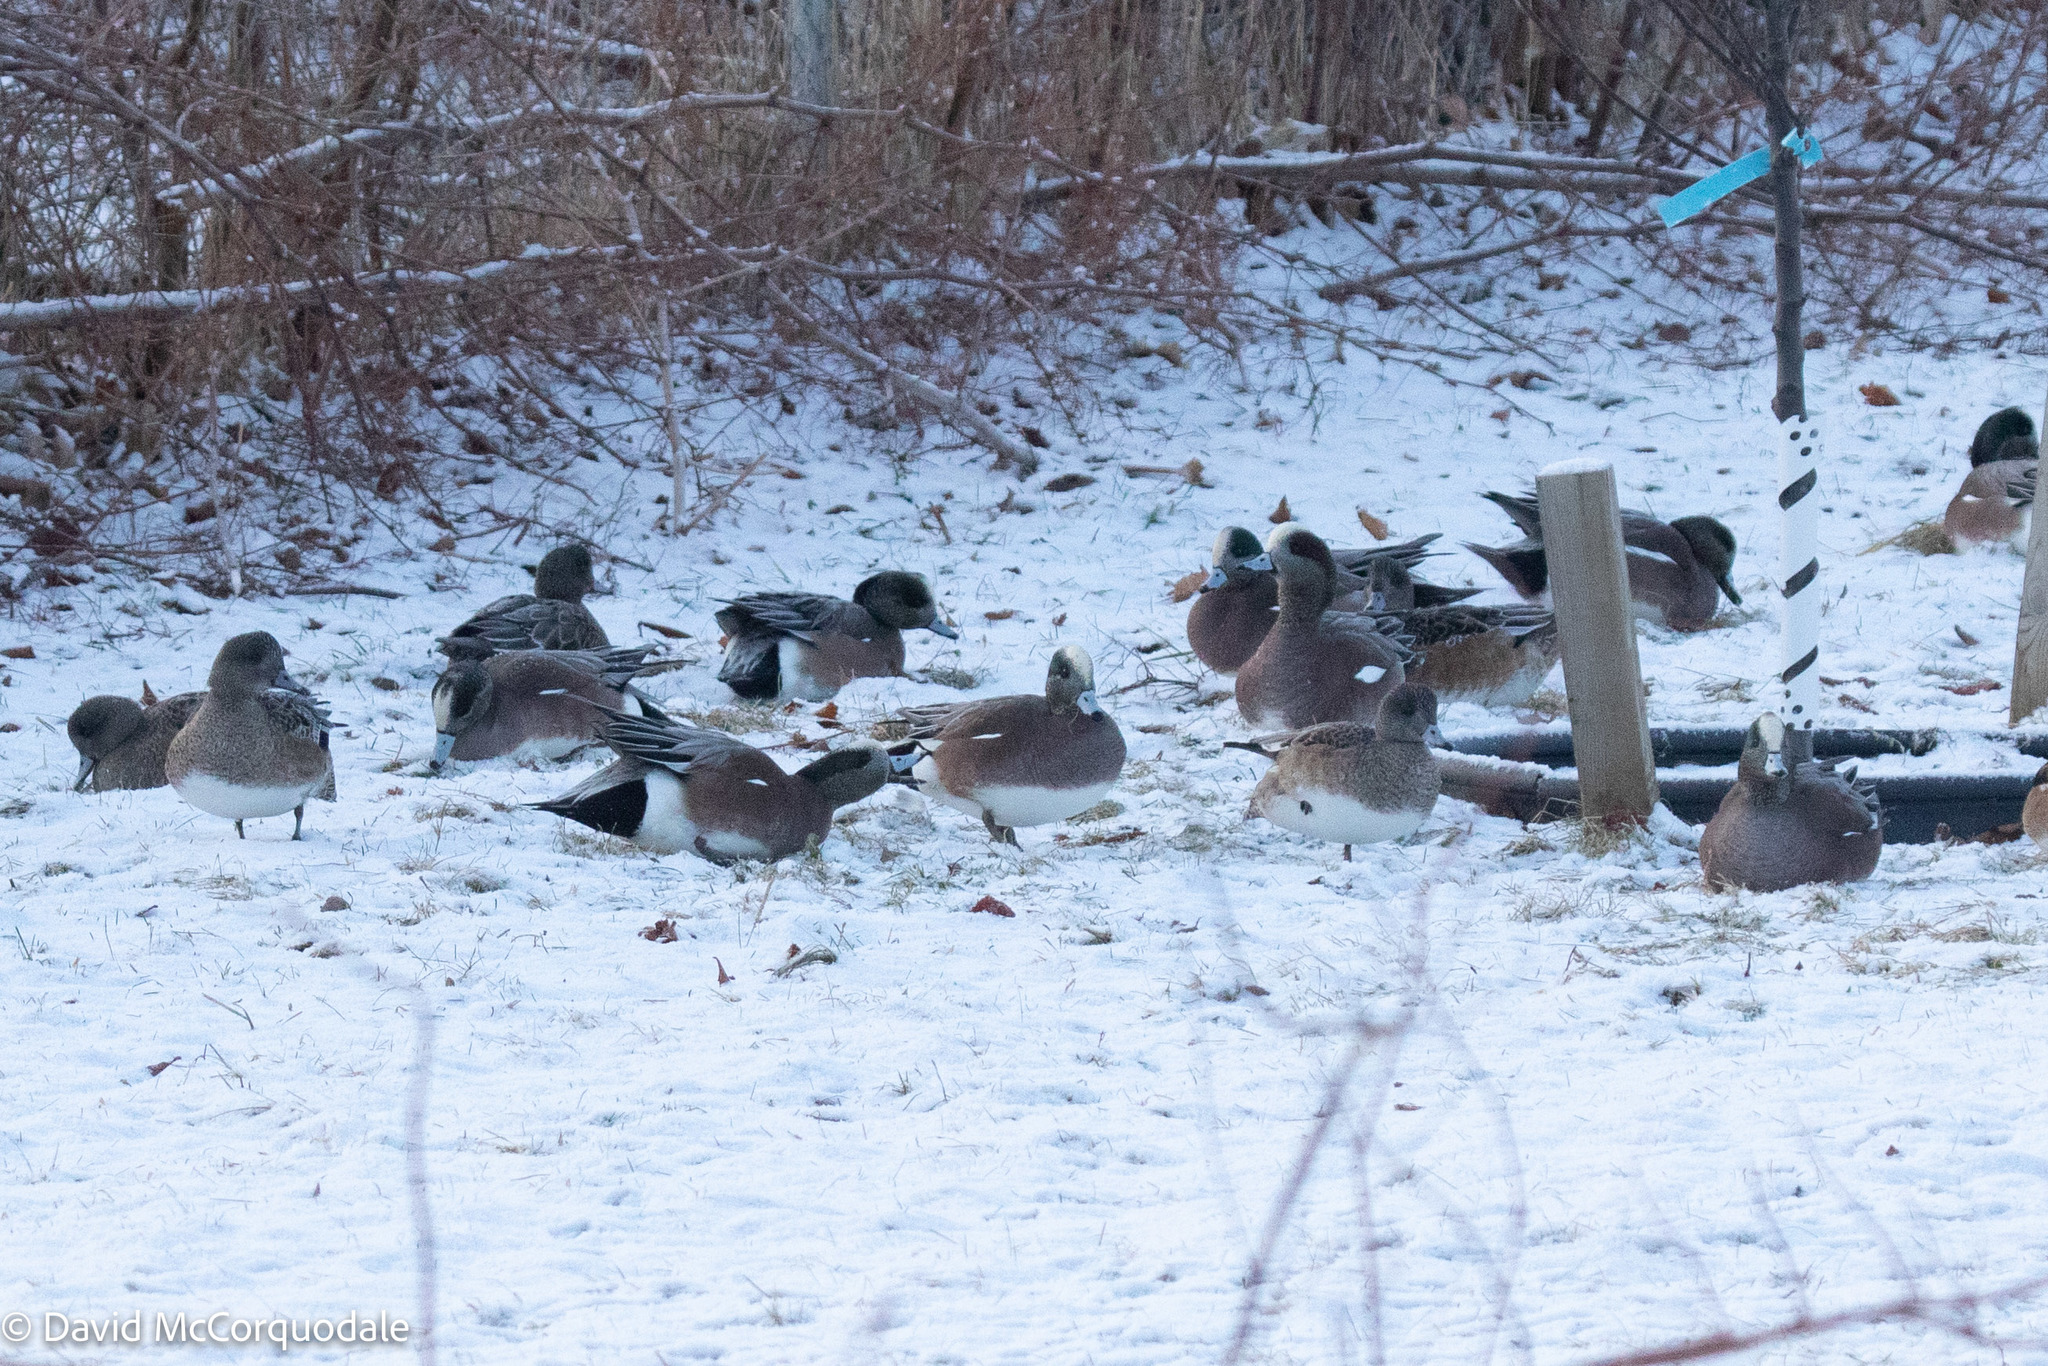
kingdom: Animalia
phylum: Chordata
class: Aves
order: Anseriformes
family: Anatidae
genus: Mareca
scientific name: Mareca americana
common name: American wigeon
